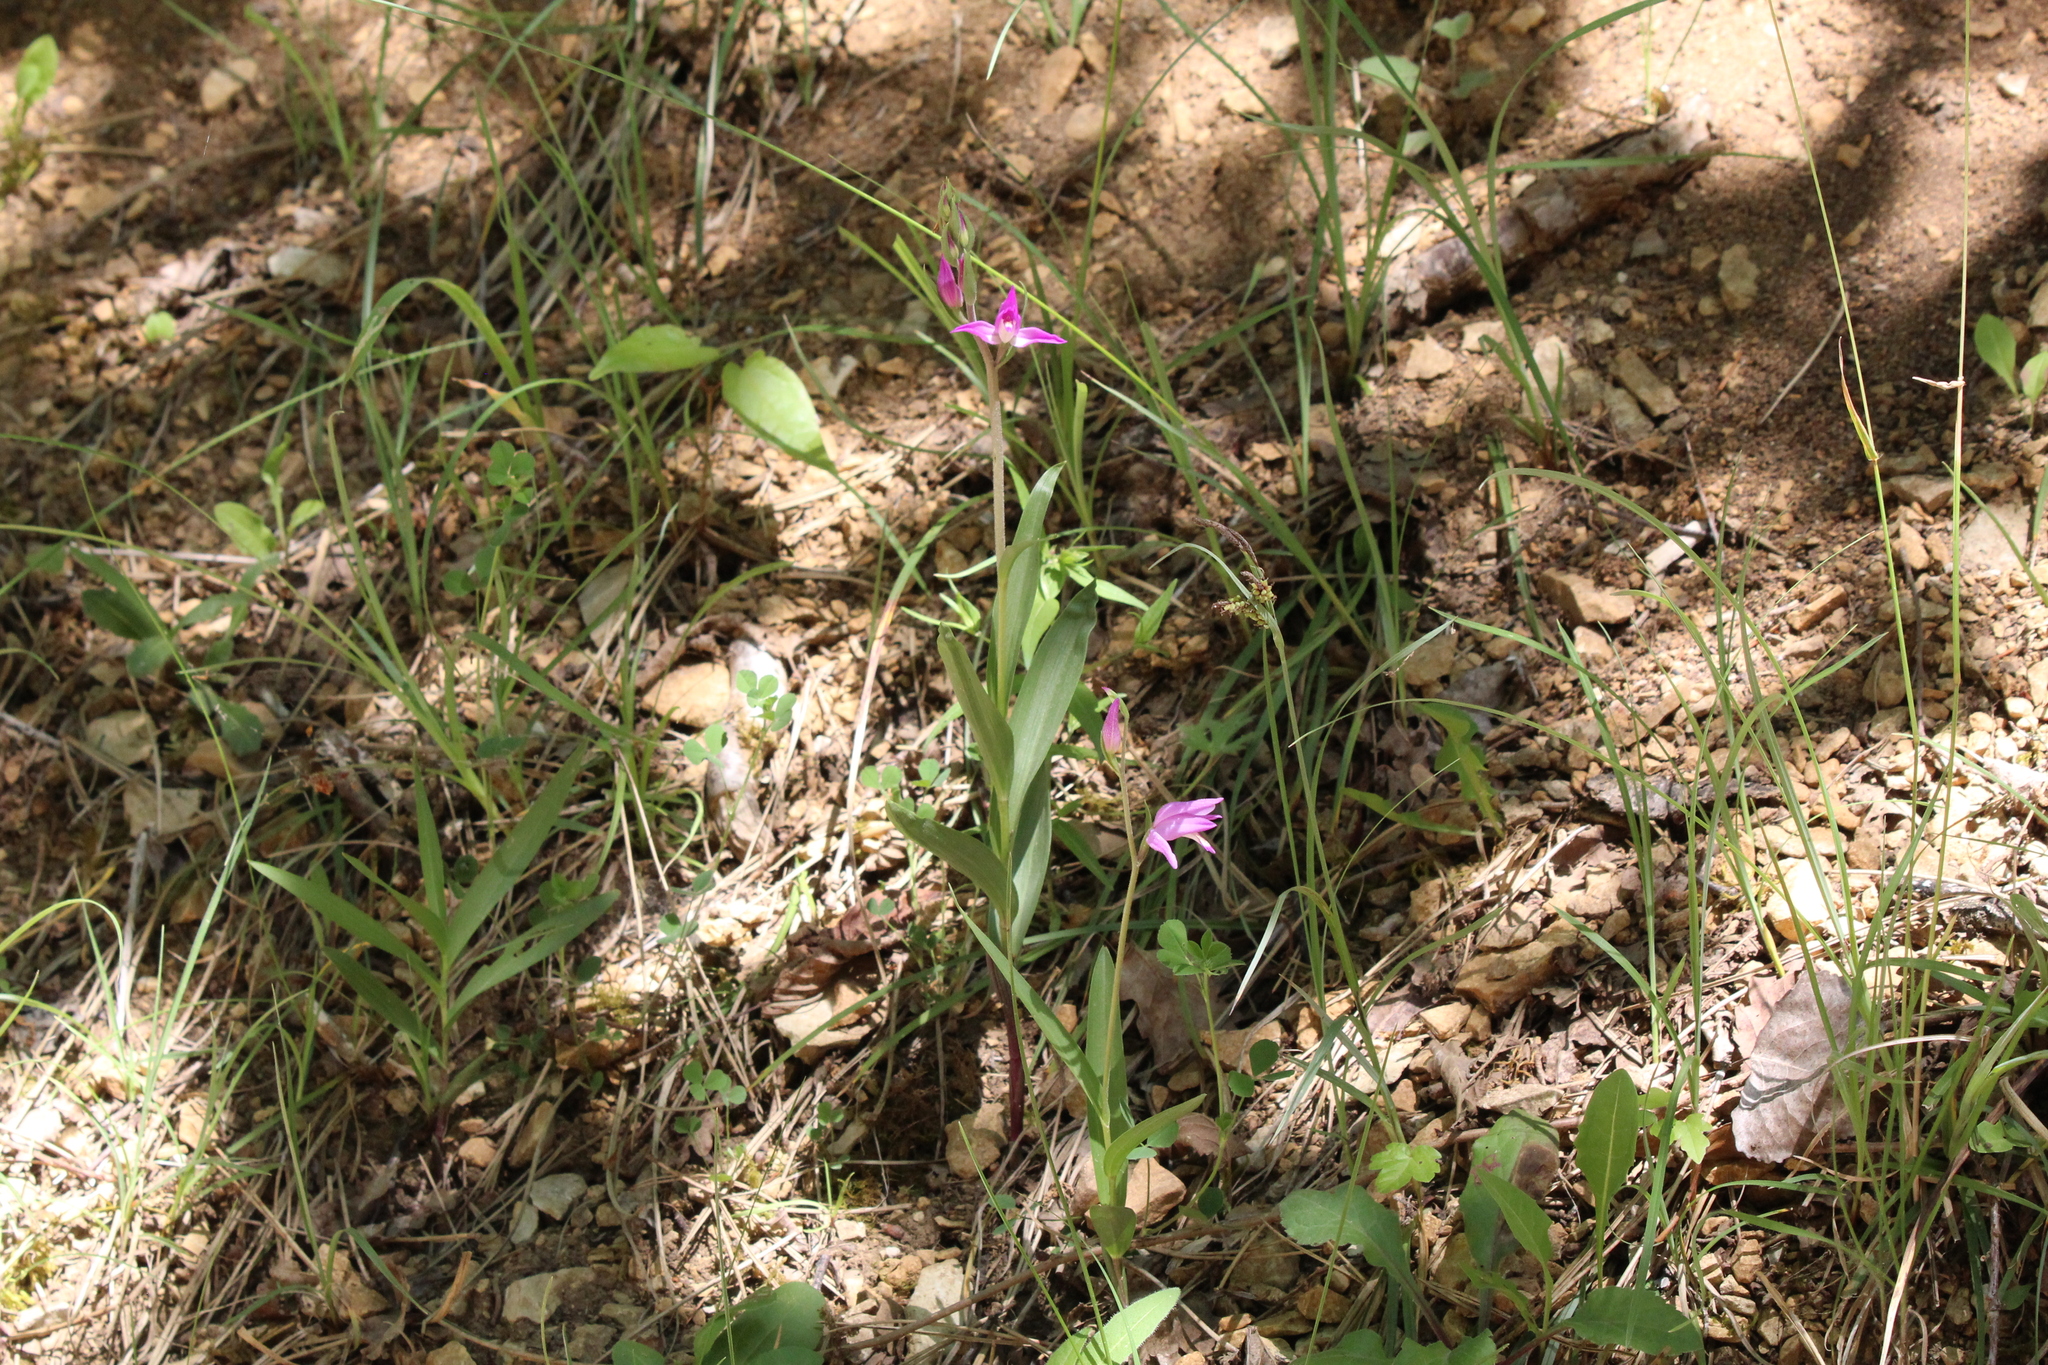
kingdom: Plantae
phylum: Tracheophyta
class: Liliopsida
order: Asparagales
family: Orchidaceae
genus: Cephalanthera
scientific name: Cephalanthera rubra
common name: Red helleborine
